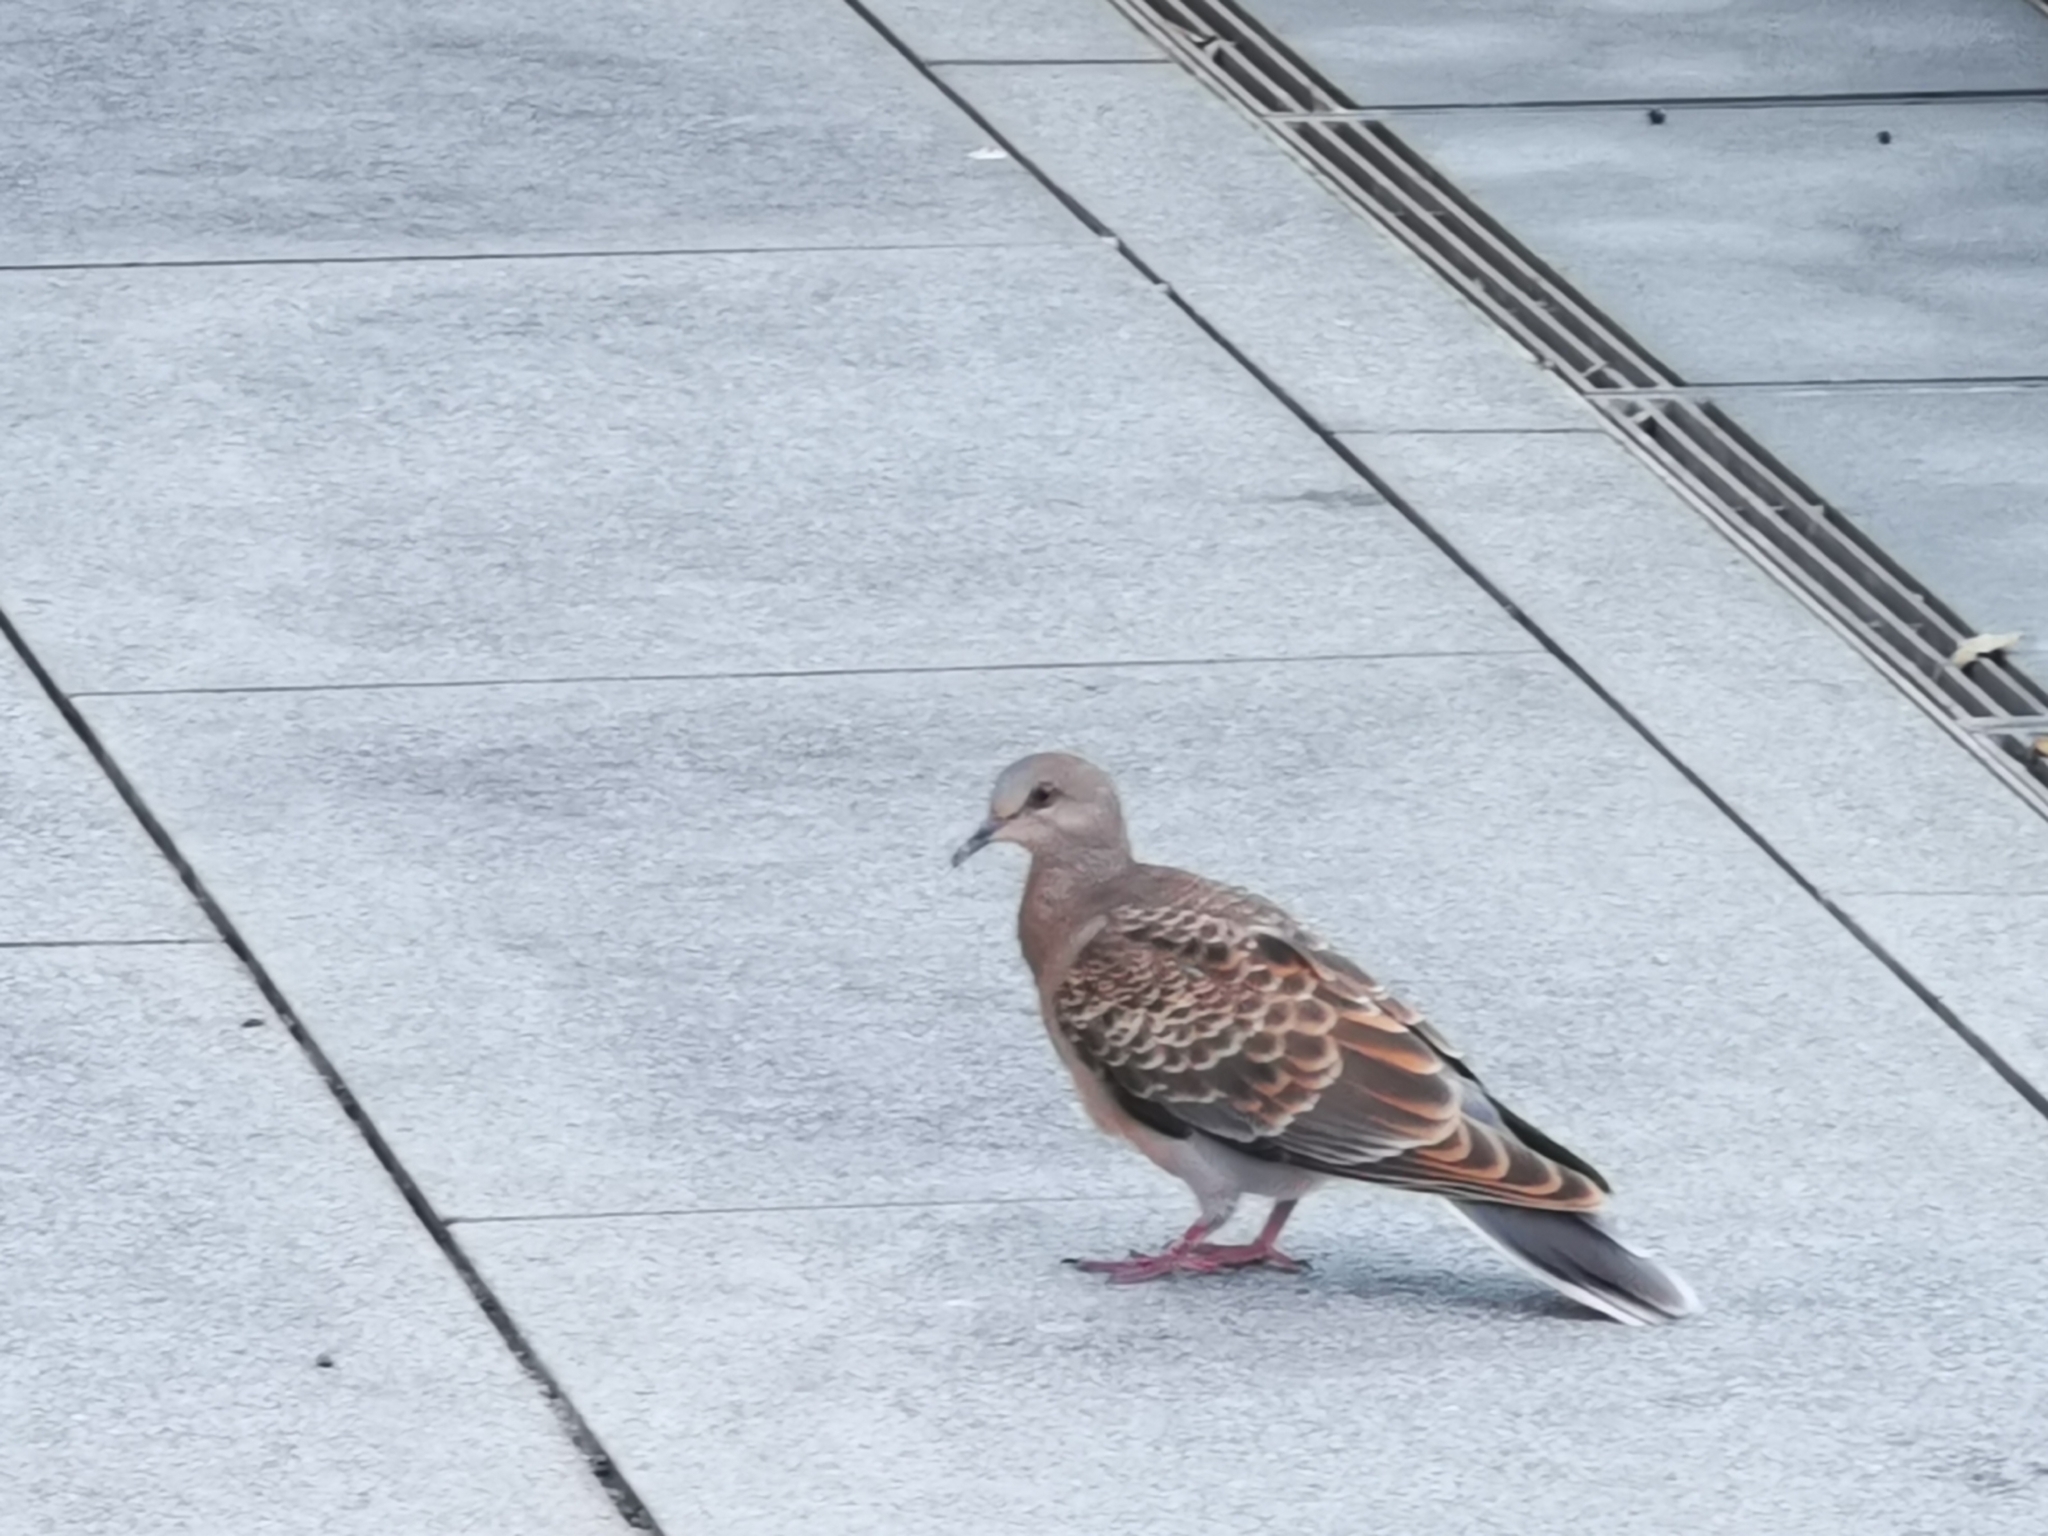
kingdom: Animalia
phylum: Chordata
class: Aves
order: Columbiformes
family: Columbidae
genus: Streptopelia
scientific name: Streptopelia orientalis
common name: Oriental turtle dove
